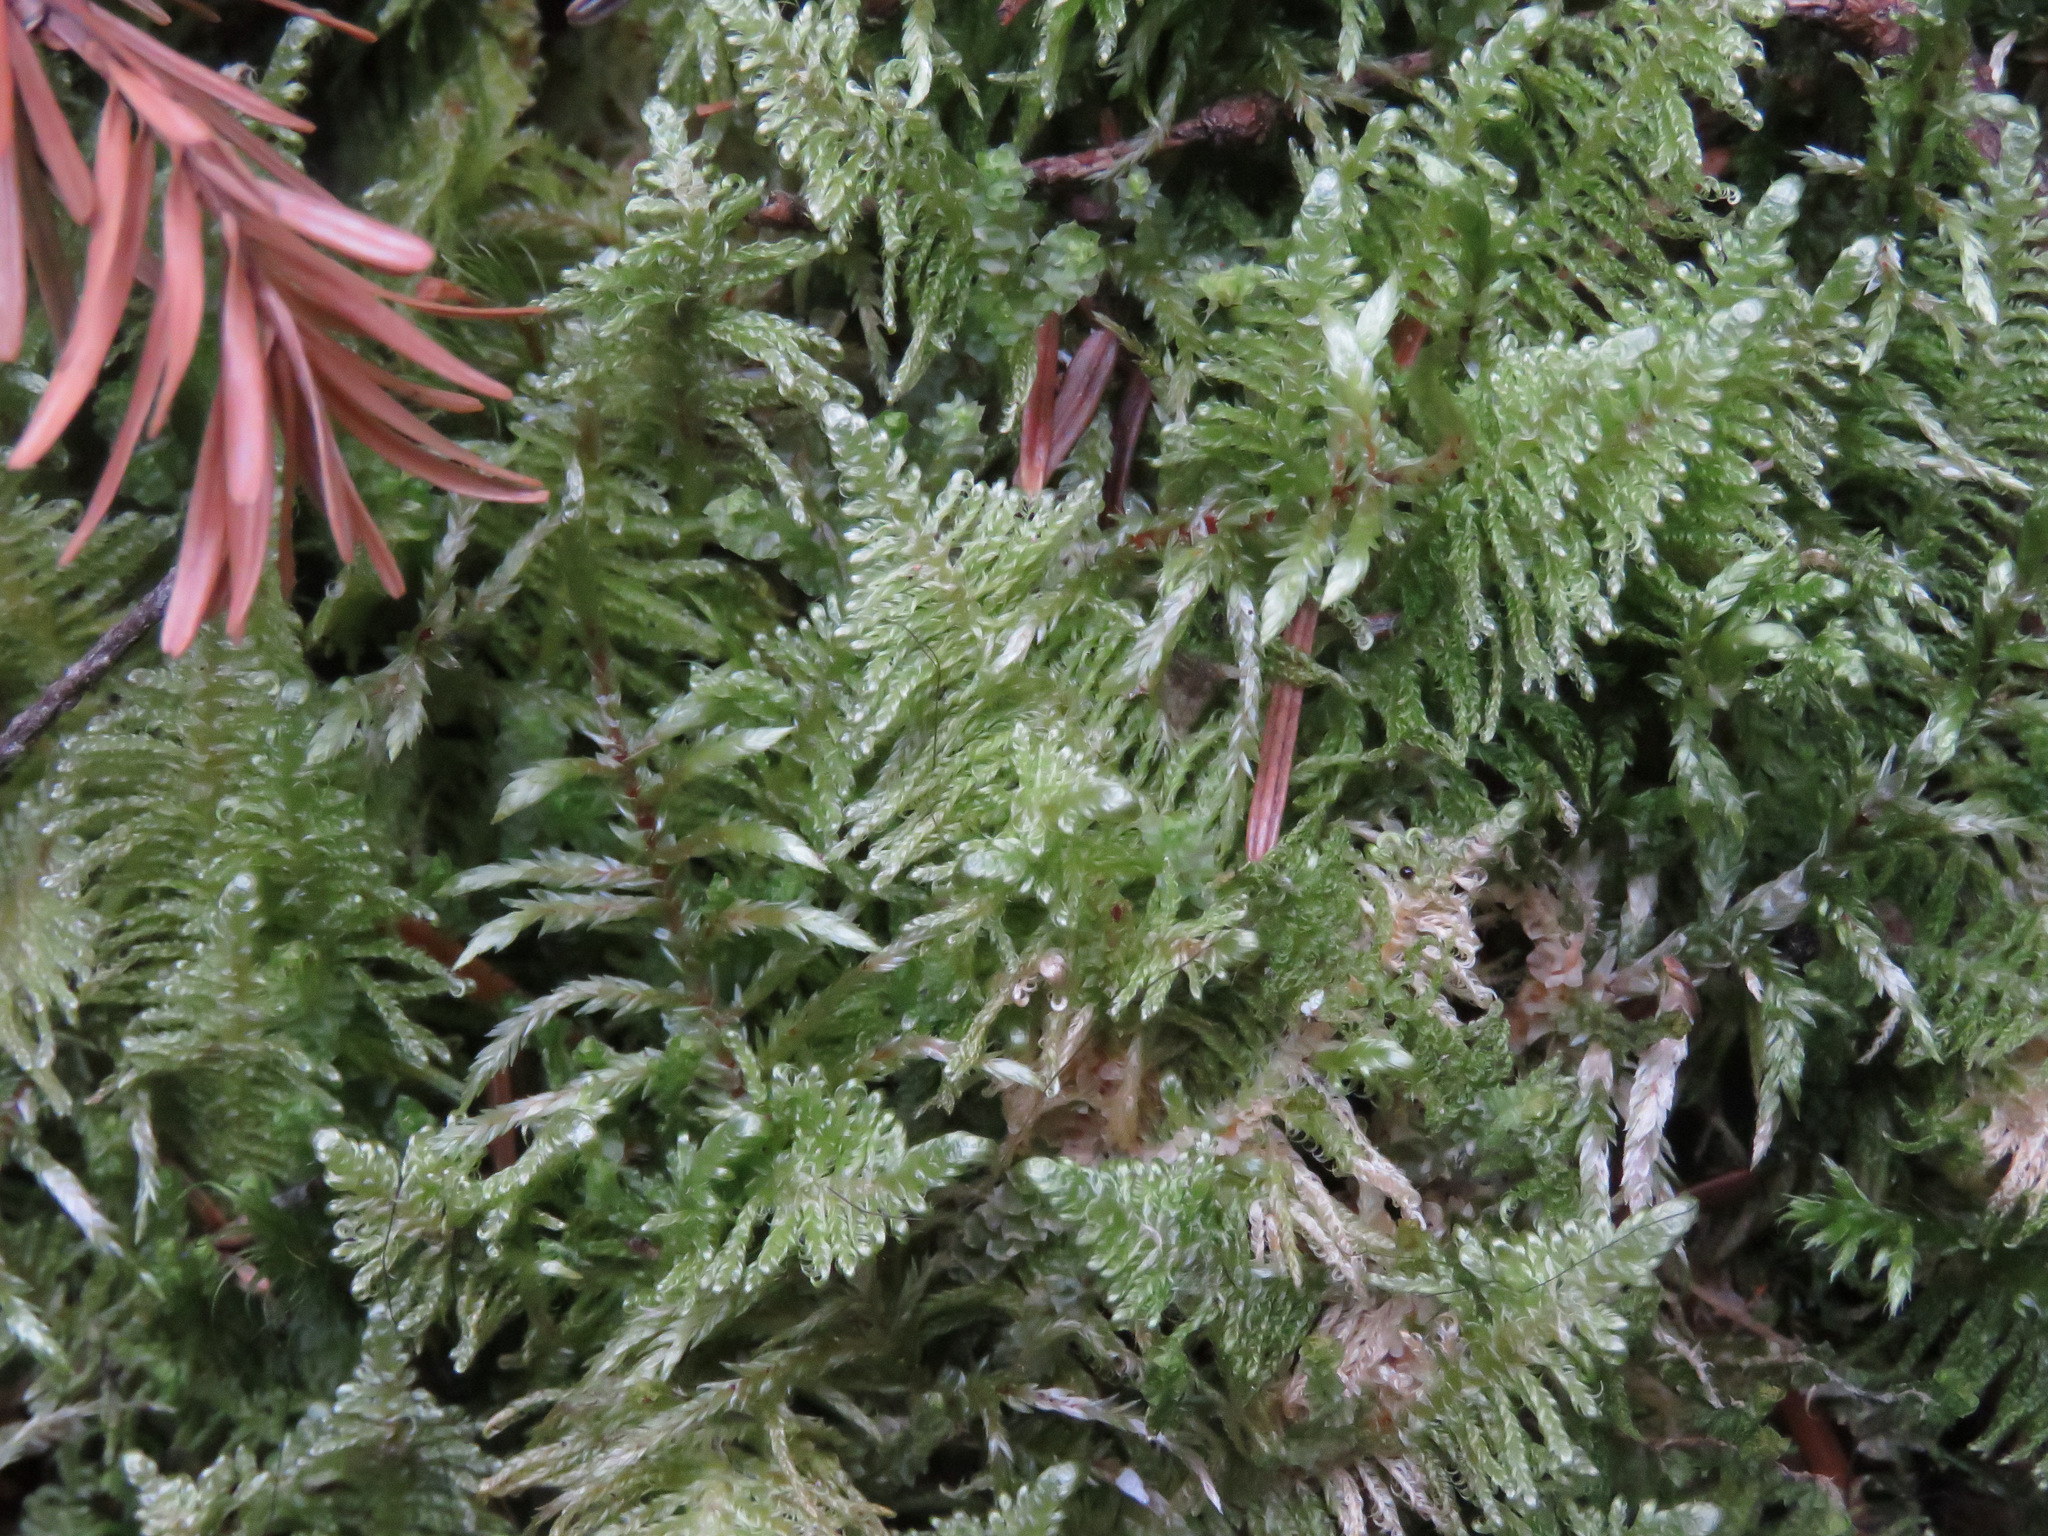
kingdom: Plantae
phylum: Bryophyta
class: Bryopsida
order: Hypnales
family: Pylaisiaceae
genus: Ptilium
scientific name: Ptilium crista-castrensis
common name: Knight's plume moss
